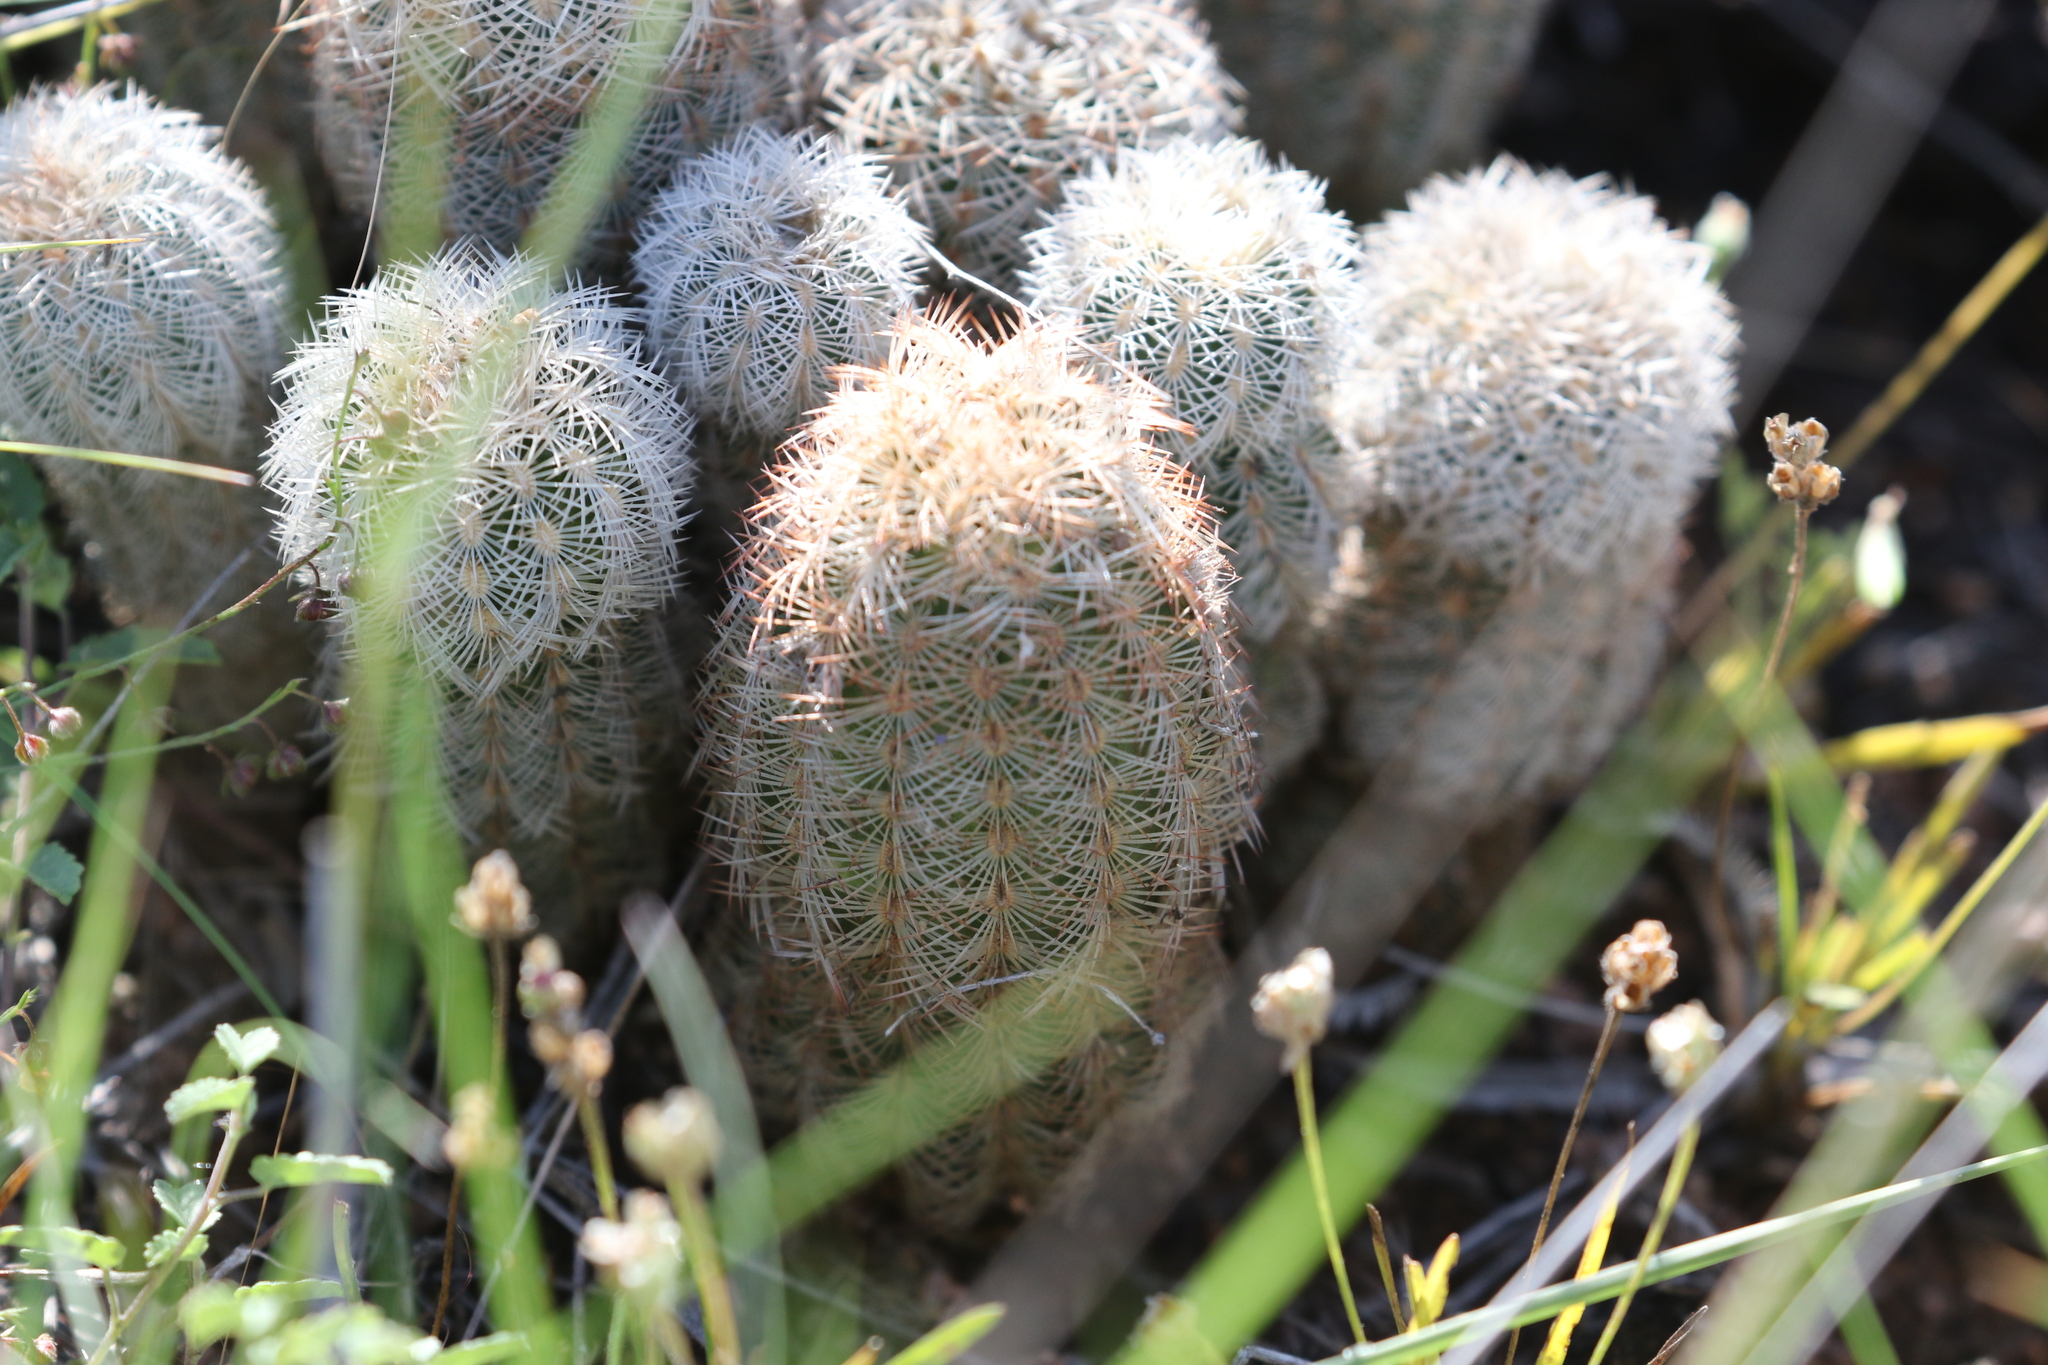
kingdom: Plantae
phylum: Tracheophyta
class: Magnoliopsida
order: Caryophyllales
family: Cactaceae
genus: Echinocereus
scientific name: Echinocereus reichenbachii
